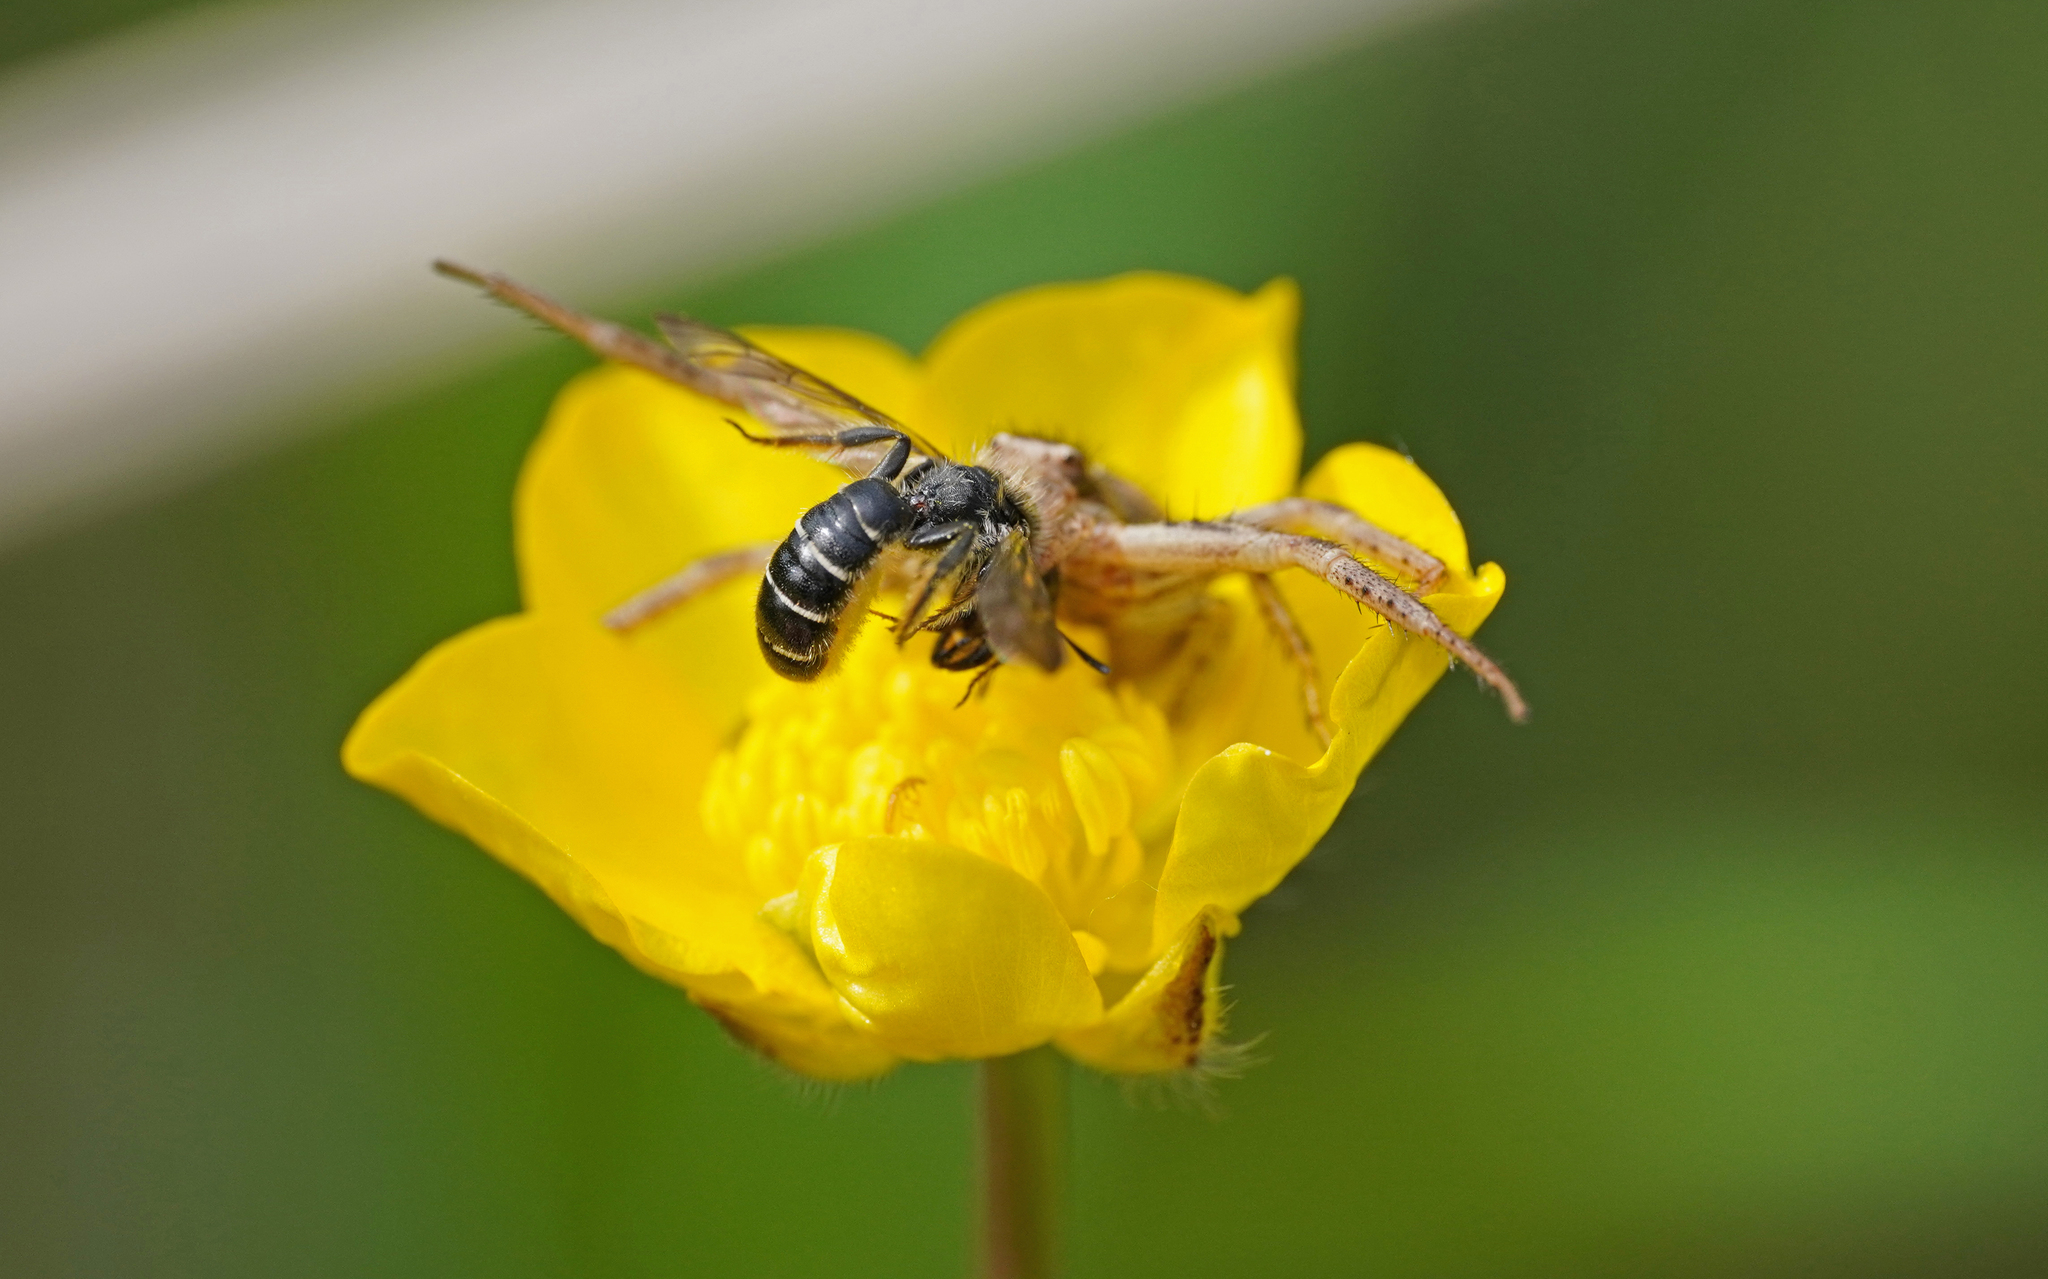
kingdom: Animalia
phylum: Arthropoda
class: Insecta
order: Hymenoptera
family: Megachilidae
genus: Chelostoma
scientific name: Chelostoma florisomne
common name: Sleepy carpenter bee
